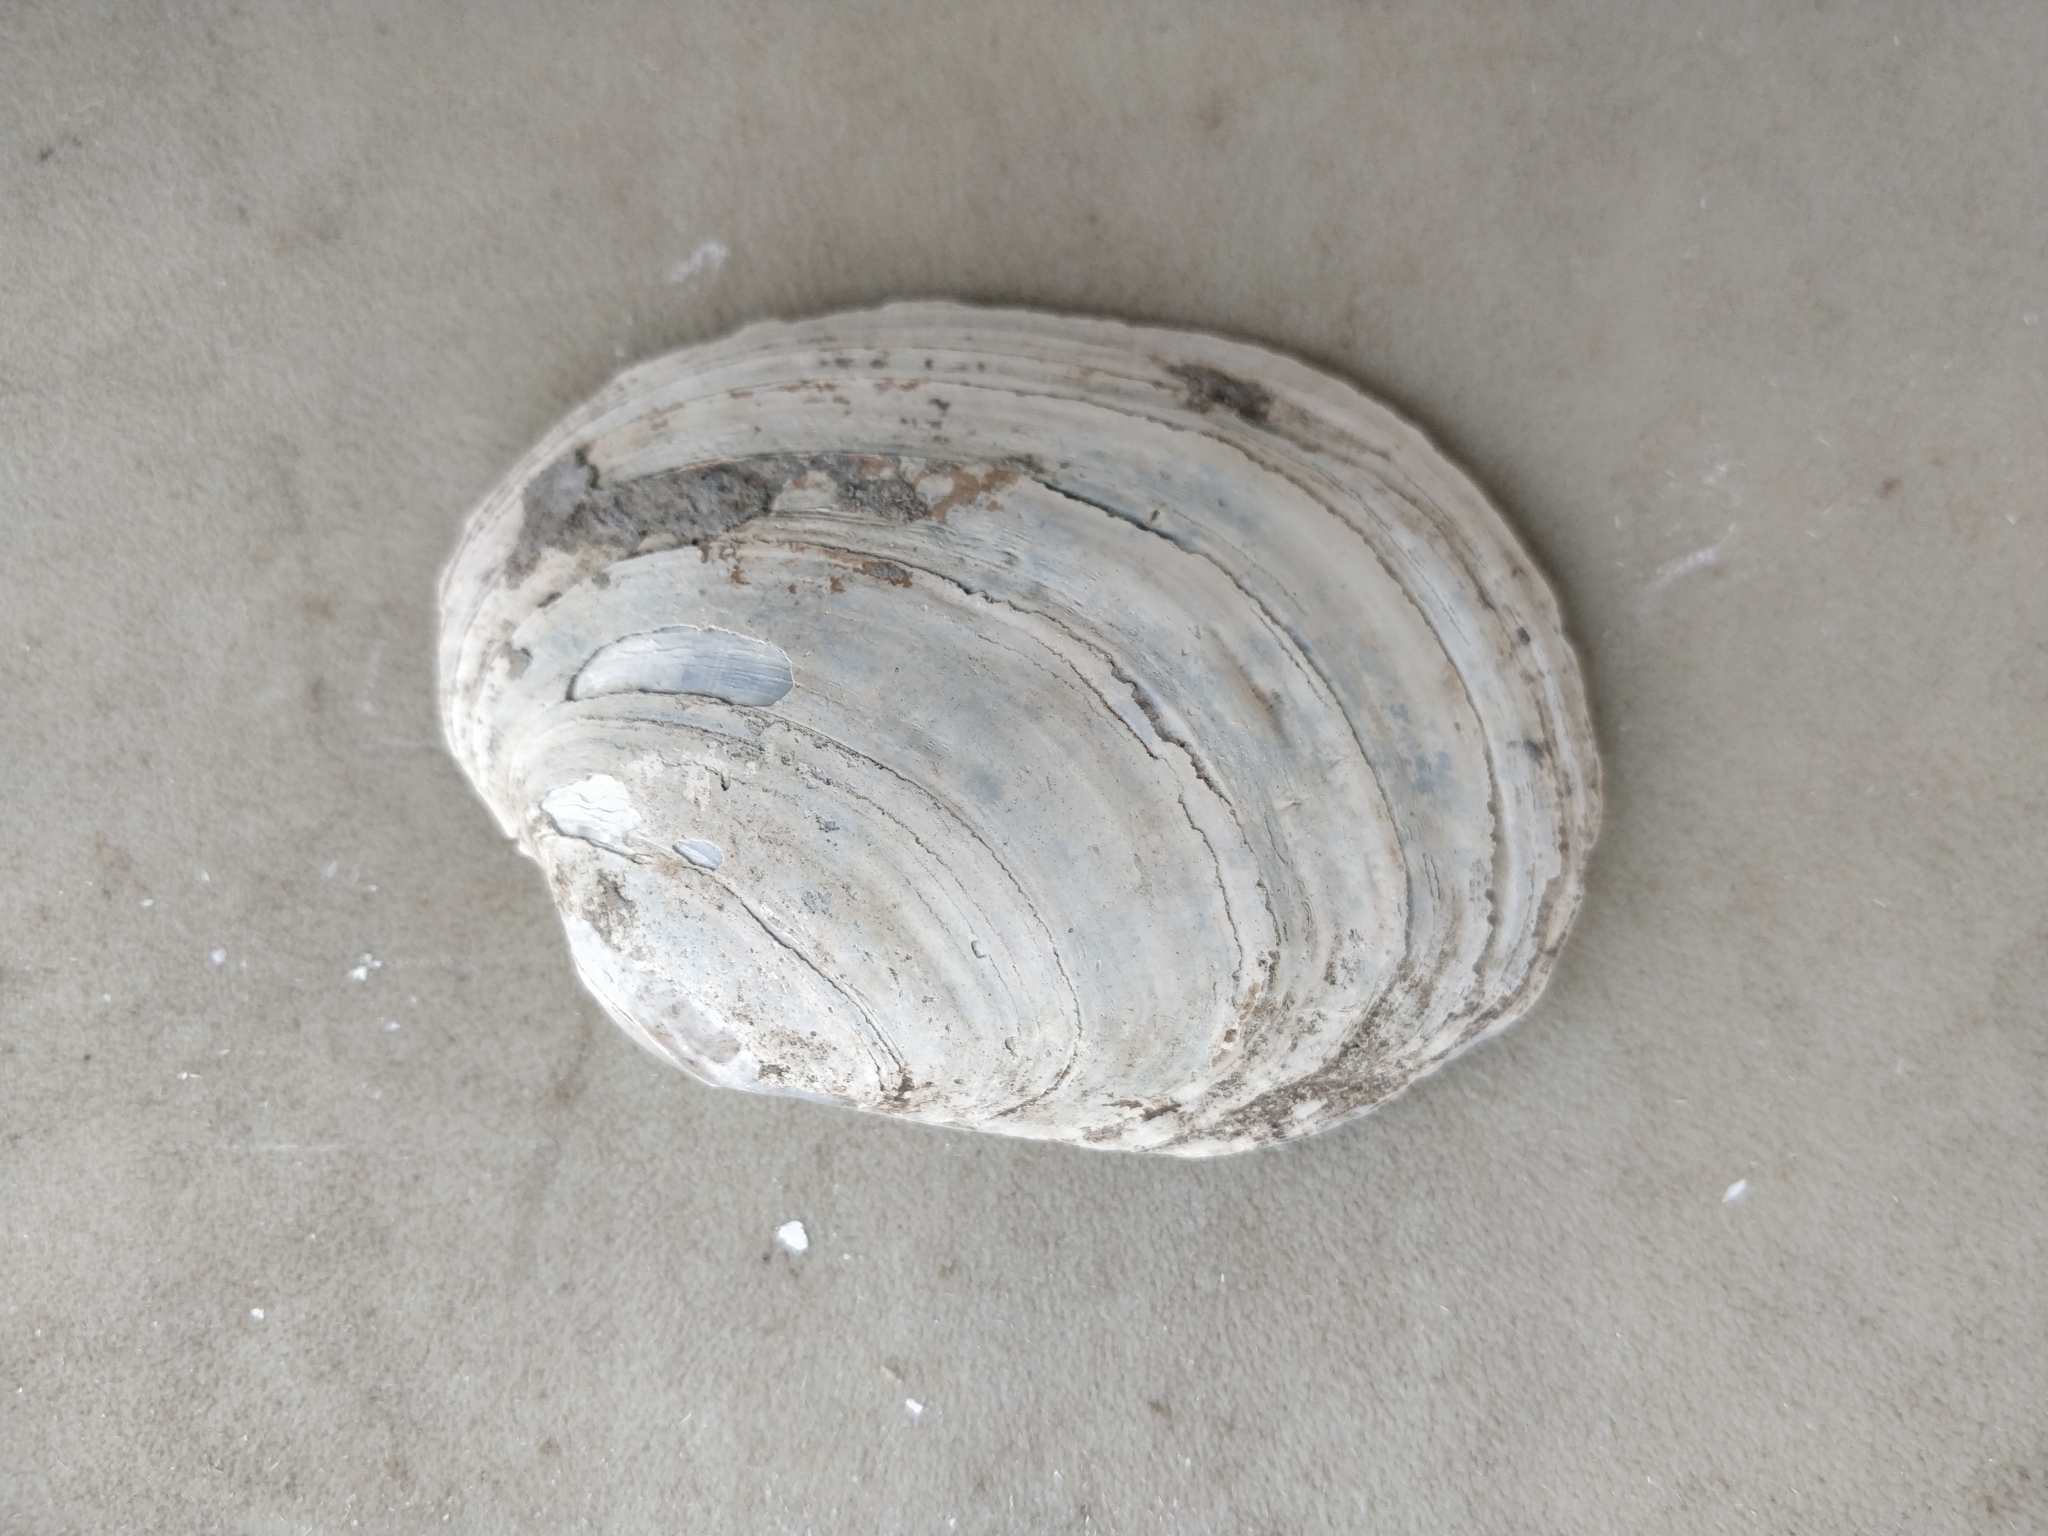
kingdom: Animalia
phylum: Mollusca
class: Bivalvia
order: Unionida
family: Unionidae
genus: Lampsilis
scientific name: Lampsilis cardium
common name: Plain pocketbook
